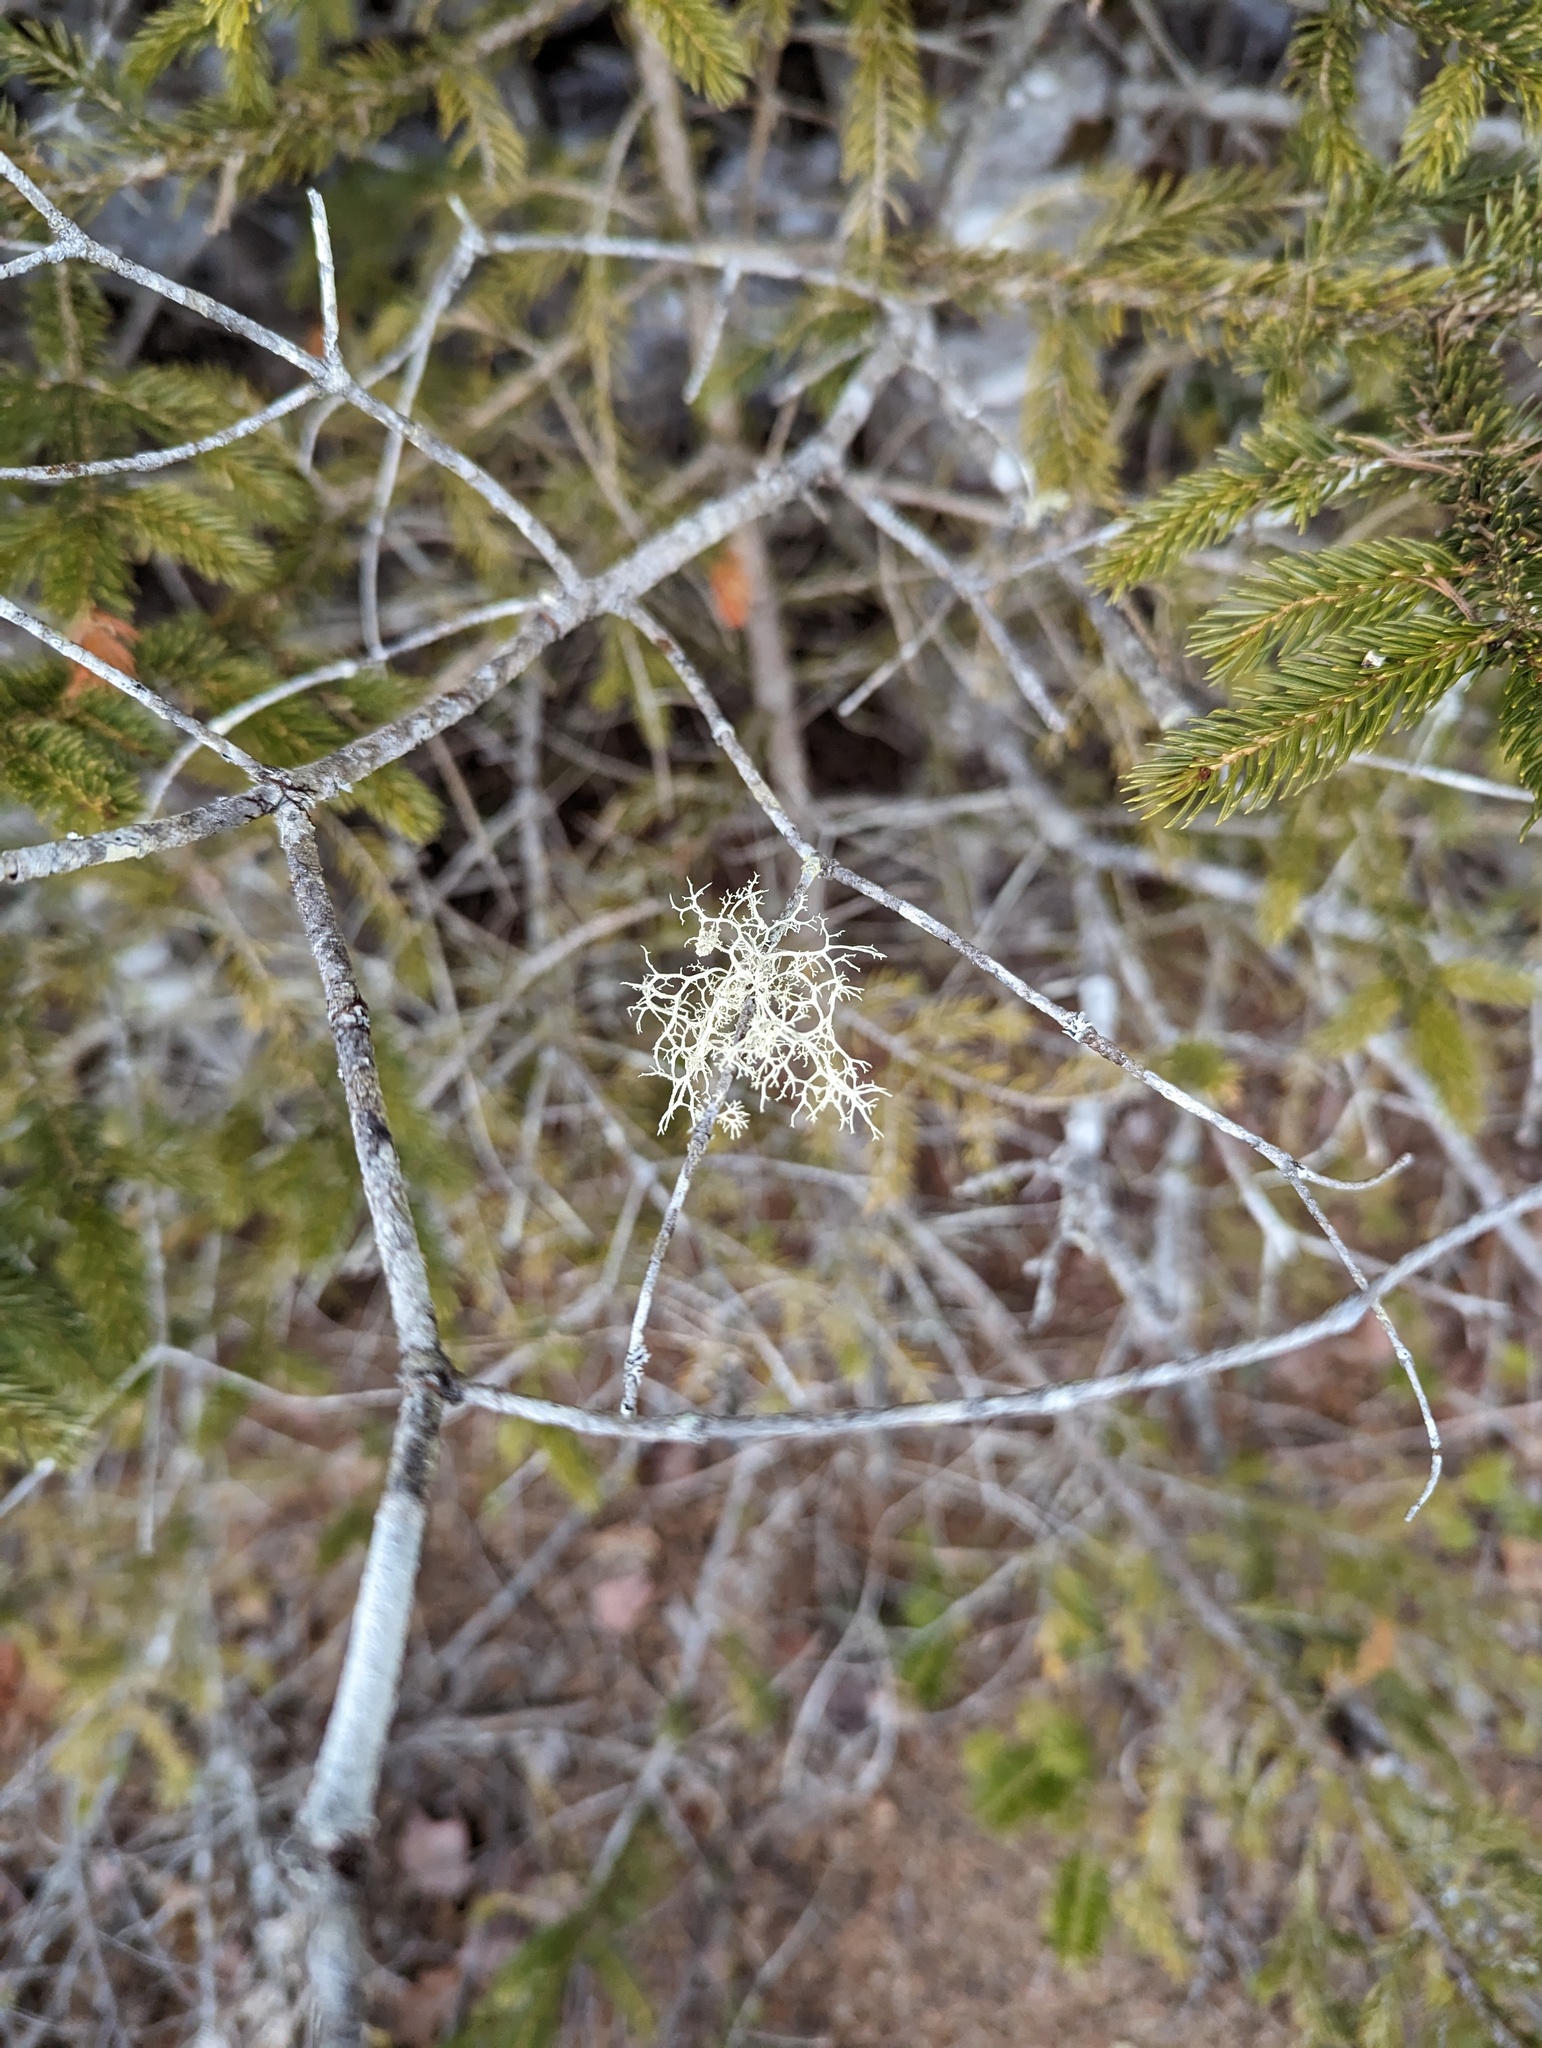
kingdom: Fungi
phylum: Ascomycota
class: Lecanoromycetes
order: Lecanorales
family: Parmeliaceae
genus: Evernia
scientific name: Evernia mesomorpha
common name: Boreal oak moss lichen
